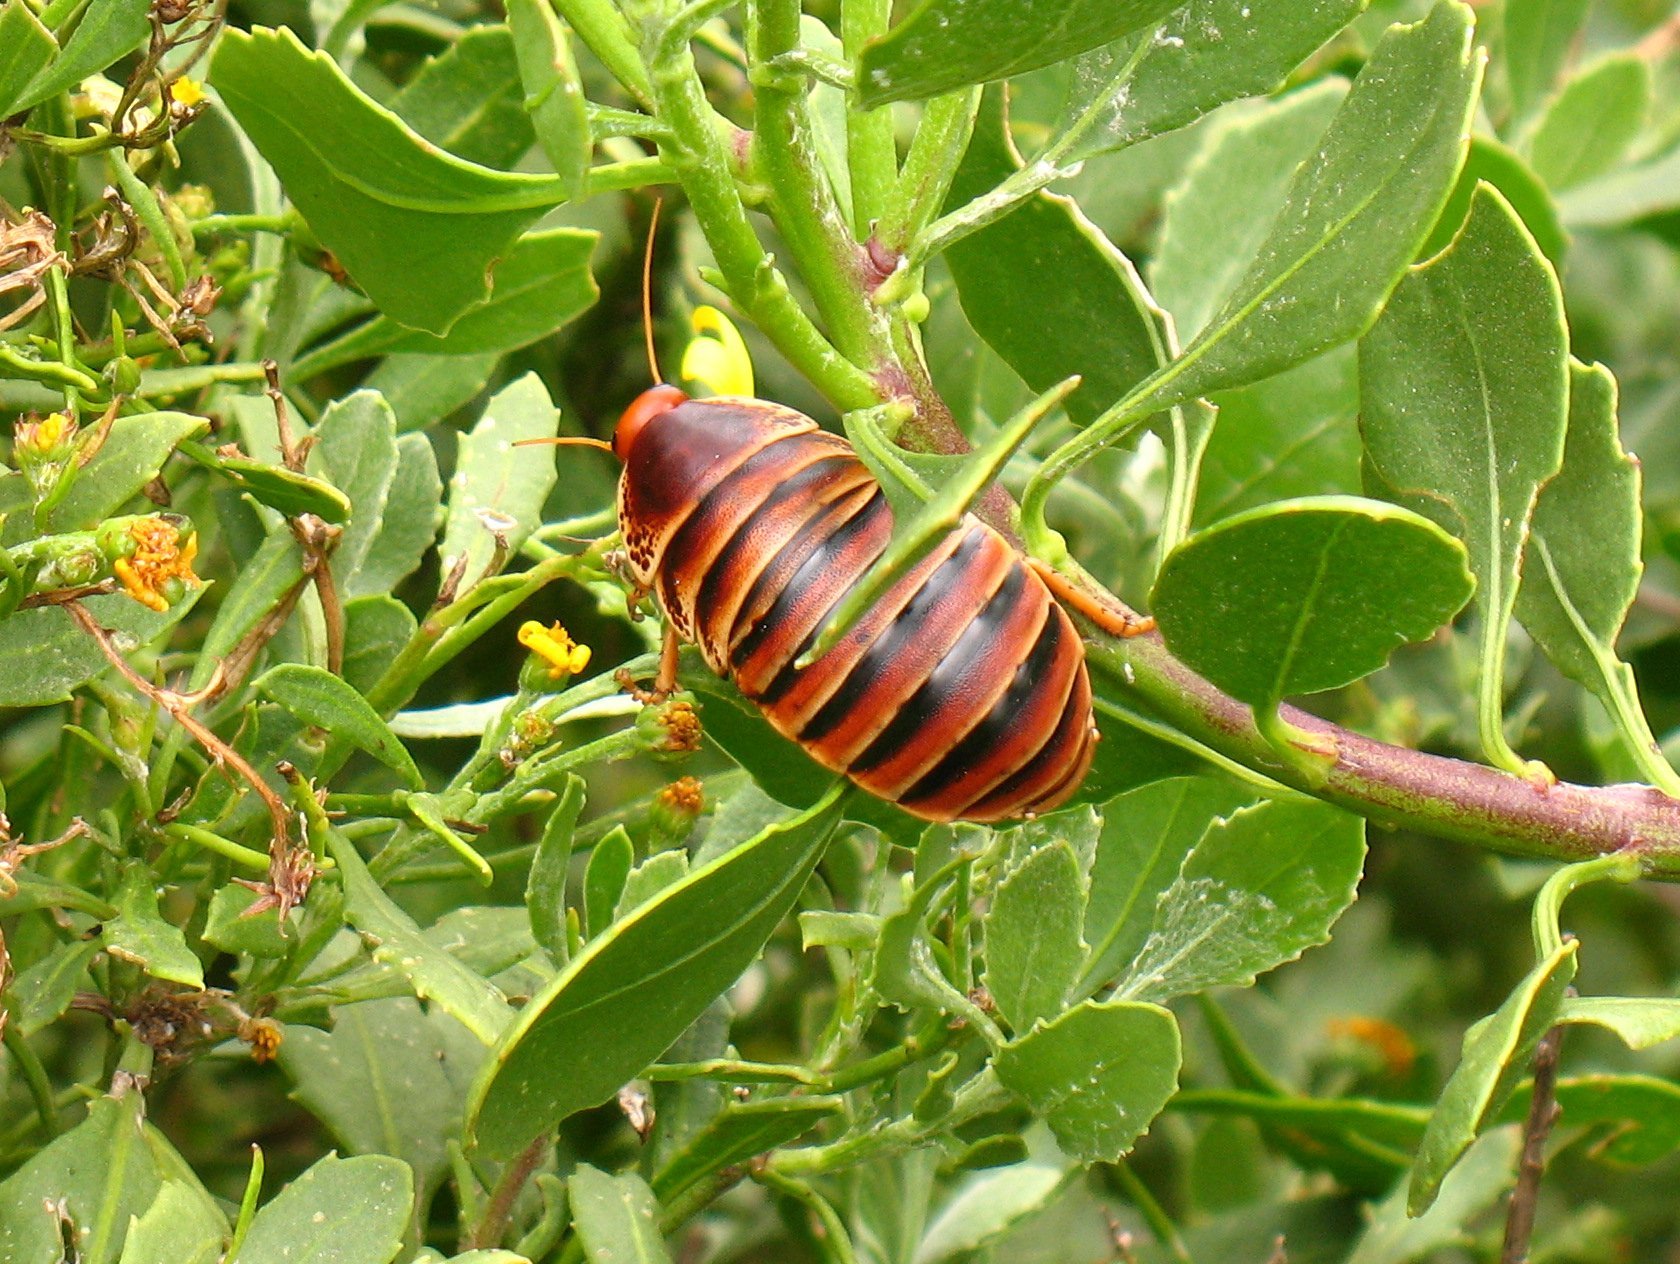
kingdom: Animalia
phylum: Arthropoda
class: Insecta
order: Blattodea
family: Blaberidae
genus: Aptera
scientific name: Aptera fusca
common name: Cape mountain cockroach
